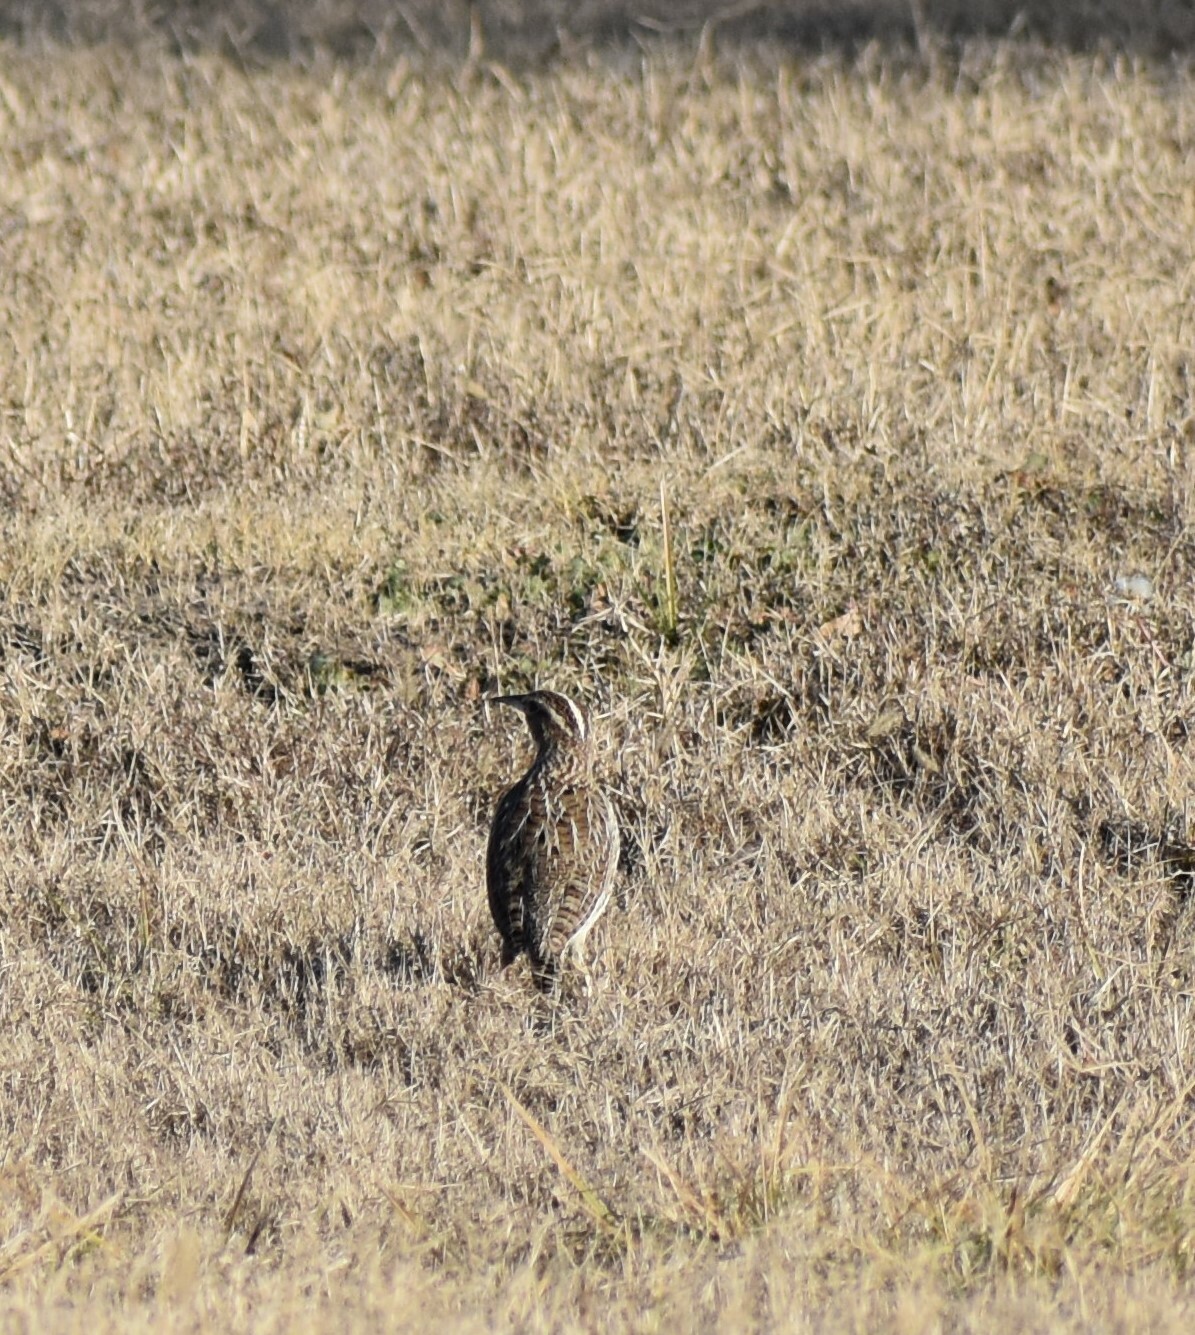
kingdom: Animalia
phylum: Chordata
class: Aves
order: Passeriformes
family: Icteridae
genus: Sturnella
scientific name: Sturnella neglecta
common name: Western meadowlark
